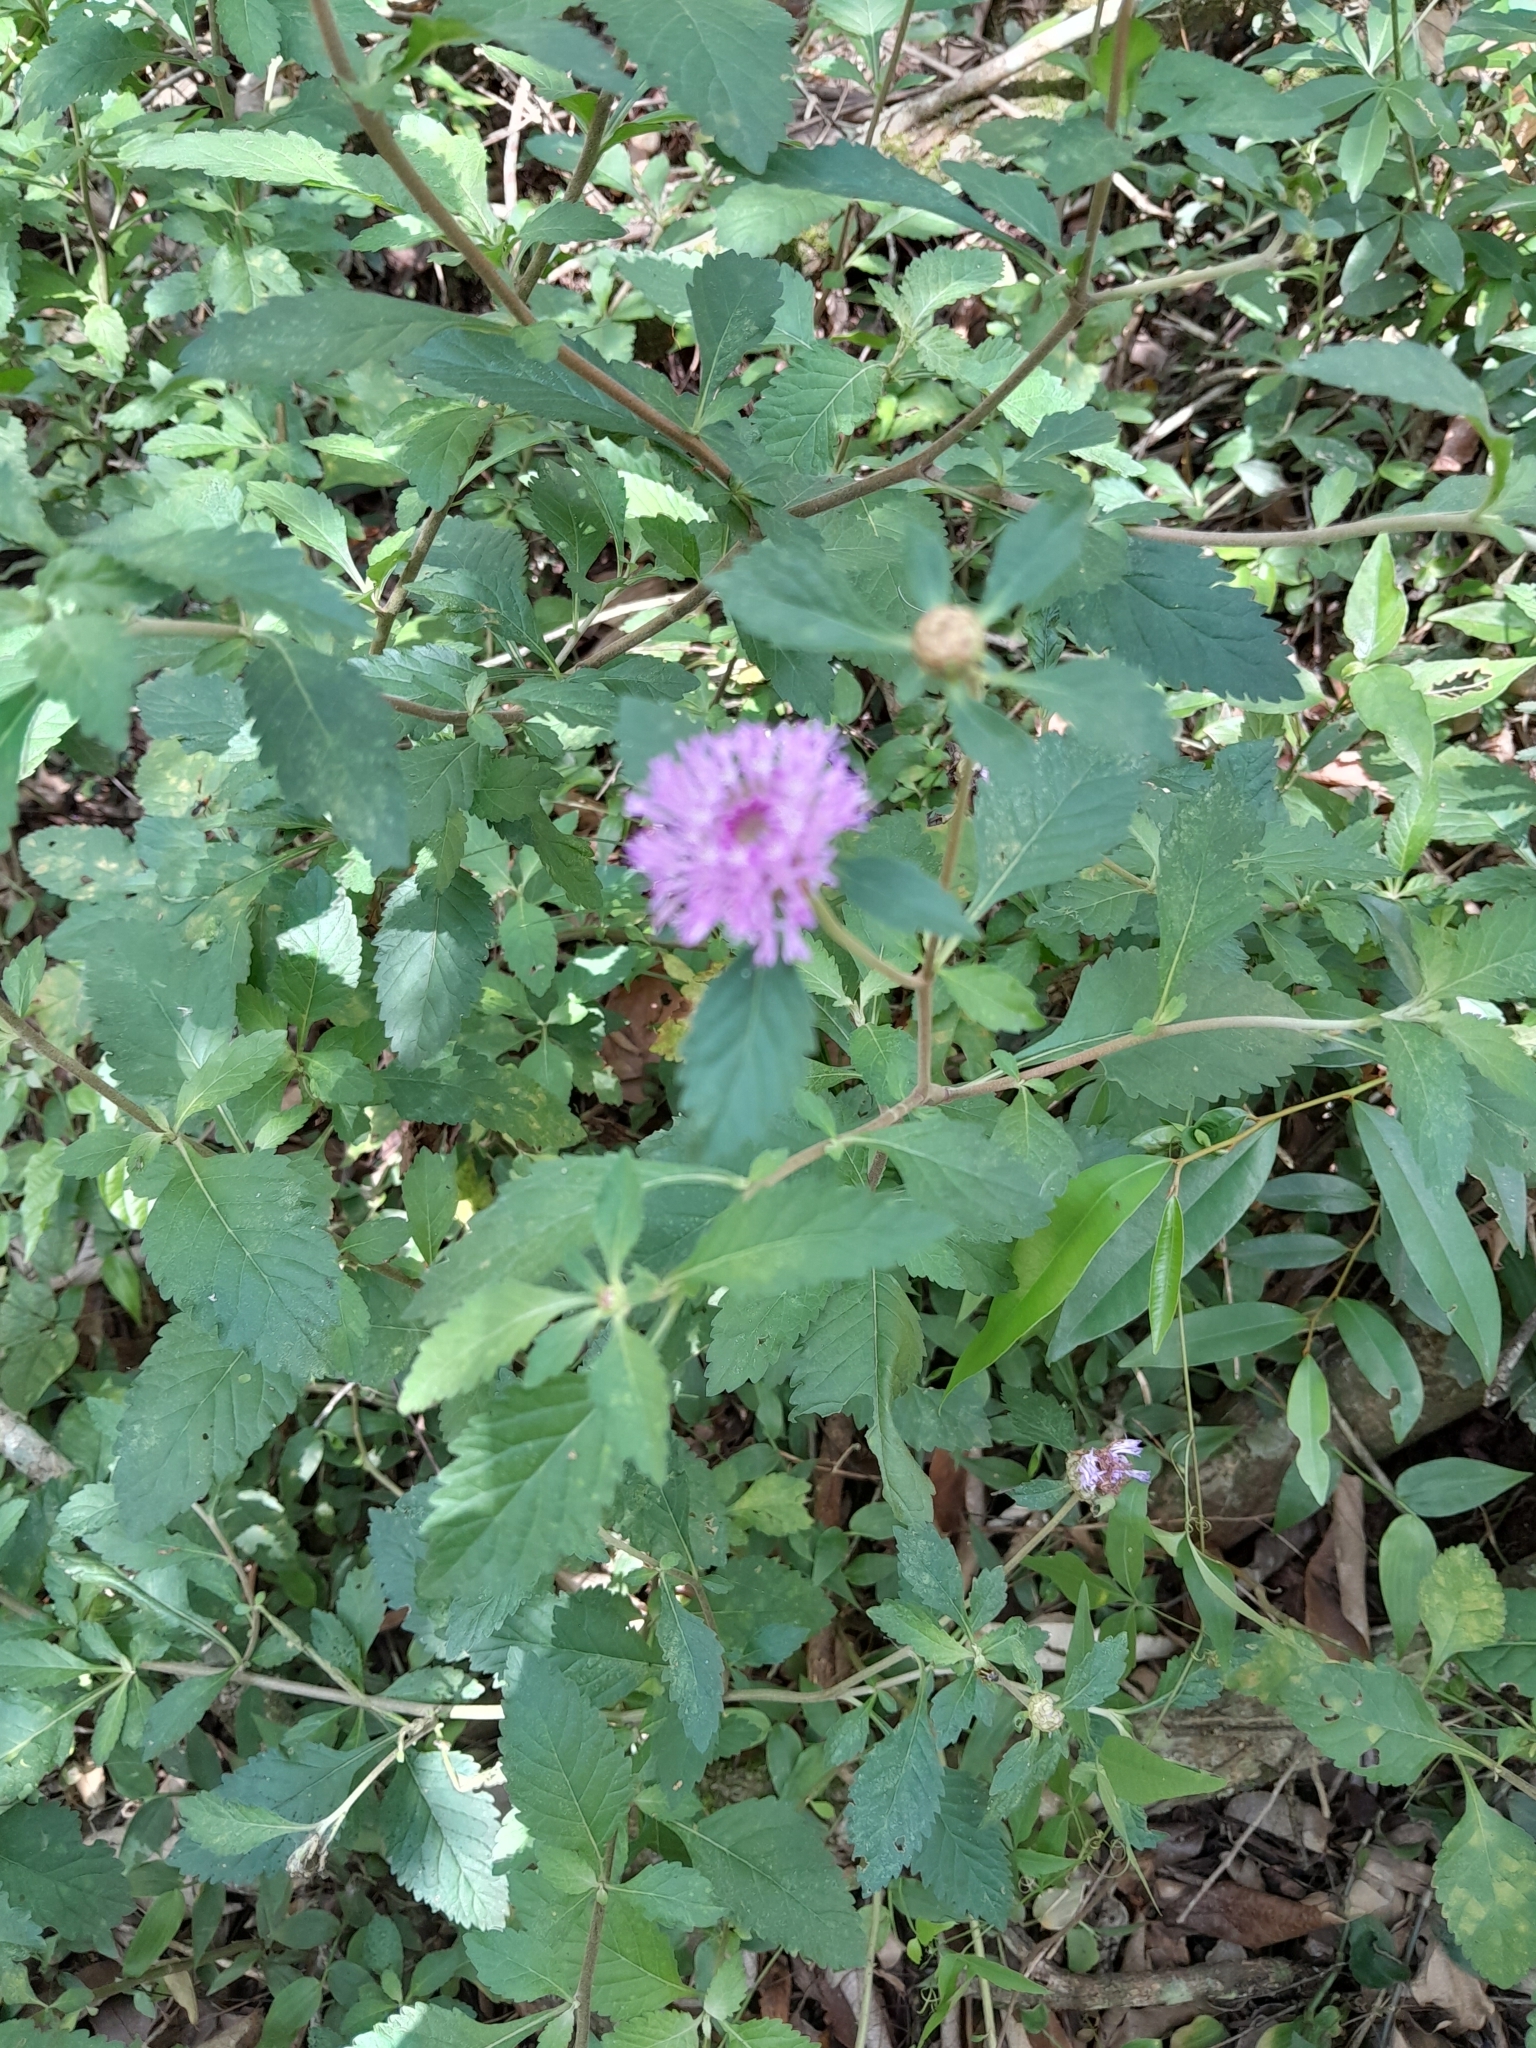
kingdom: Plantae
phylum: Tracheophyta
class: Magnoliopsida
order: Asterales
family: Asteraceae
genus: Centratherum
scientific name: Centratherum punctatum
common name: Larkdaisy
